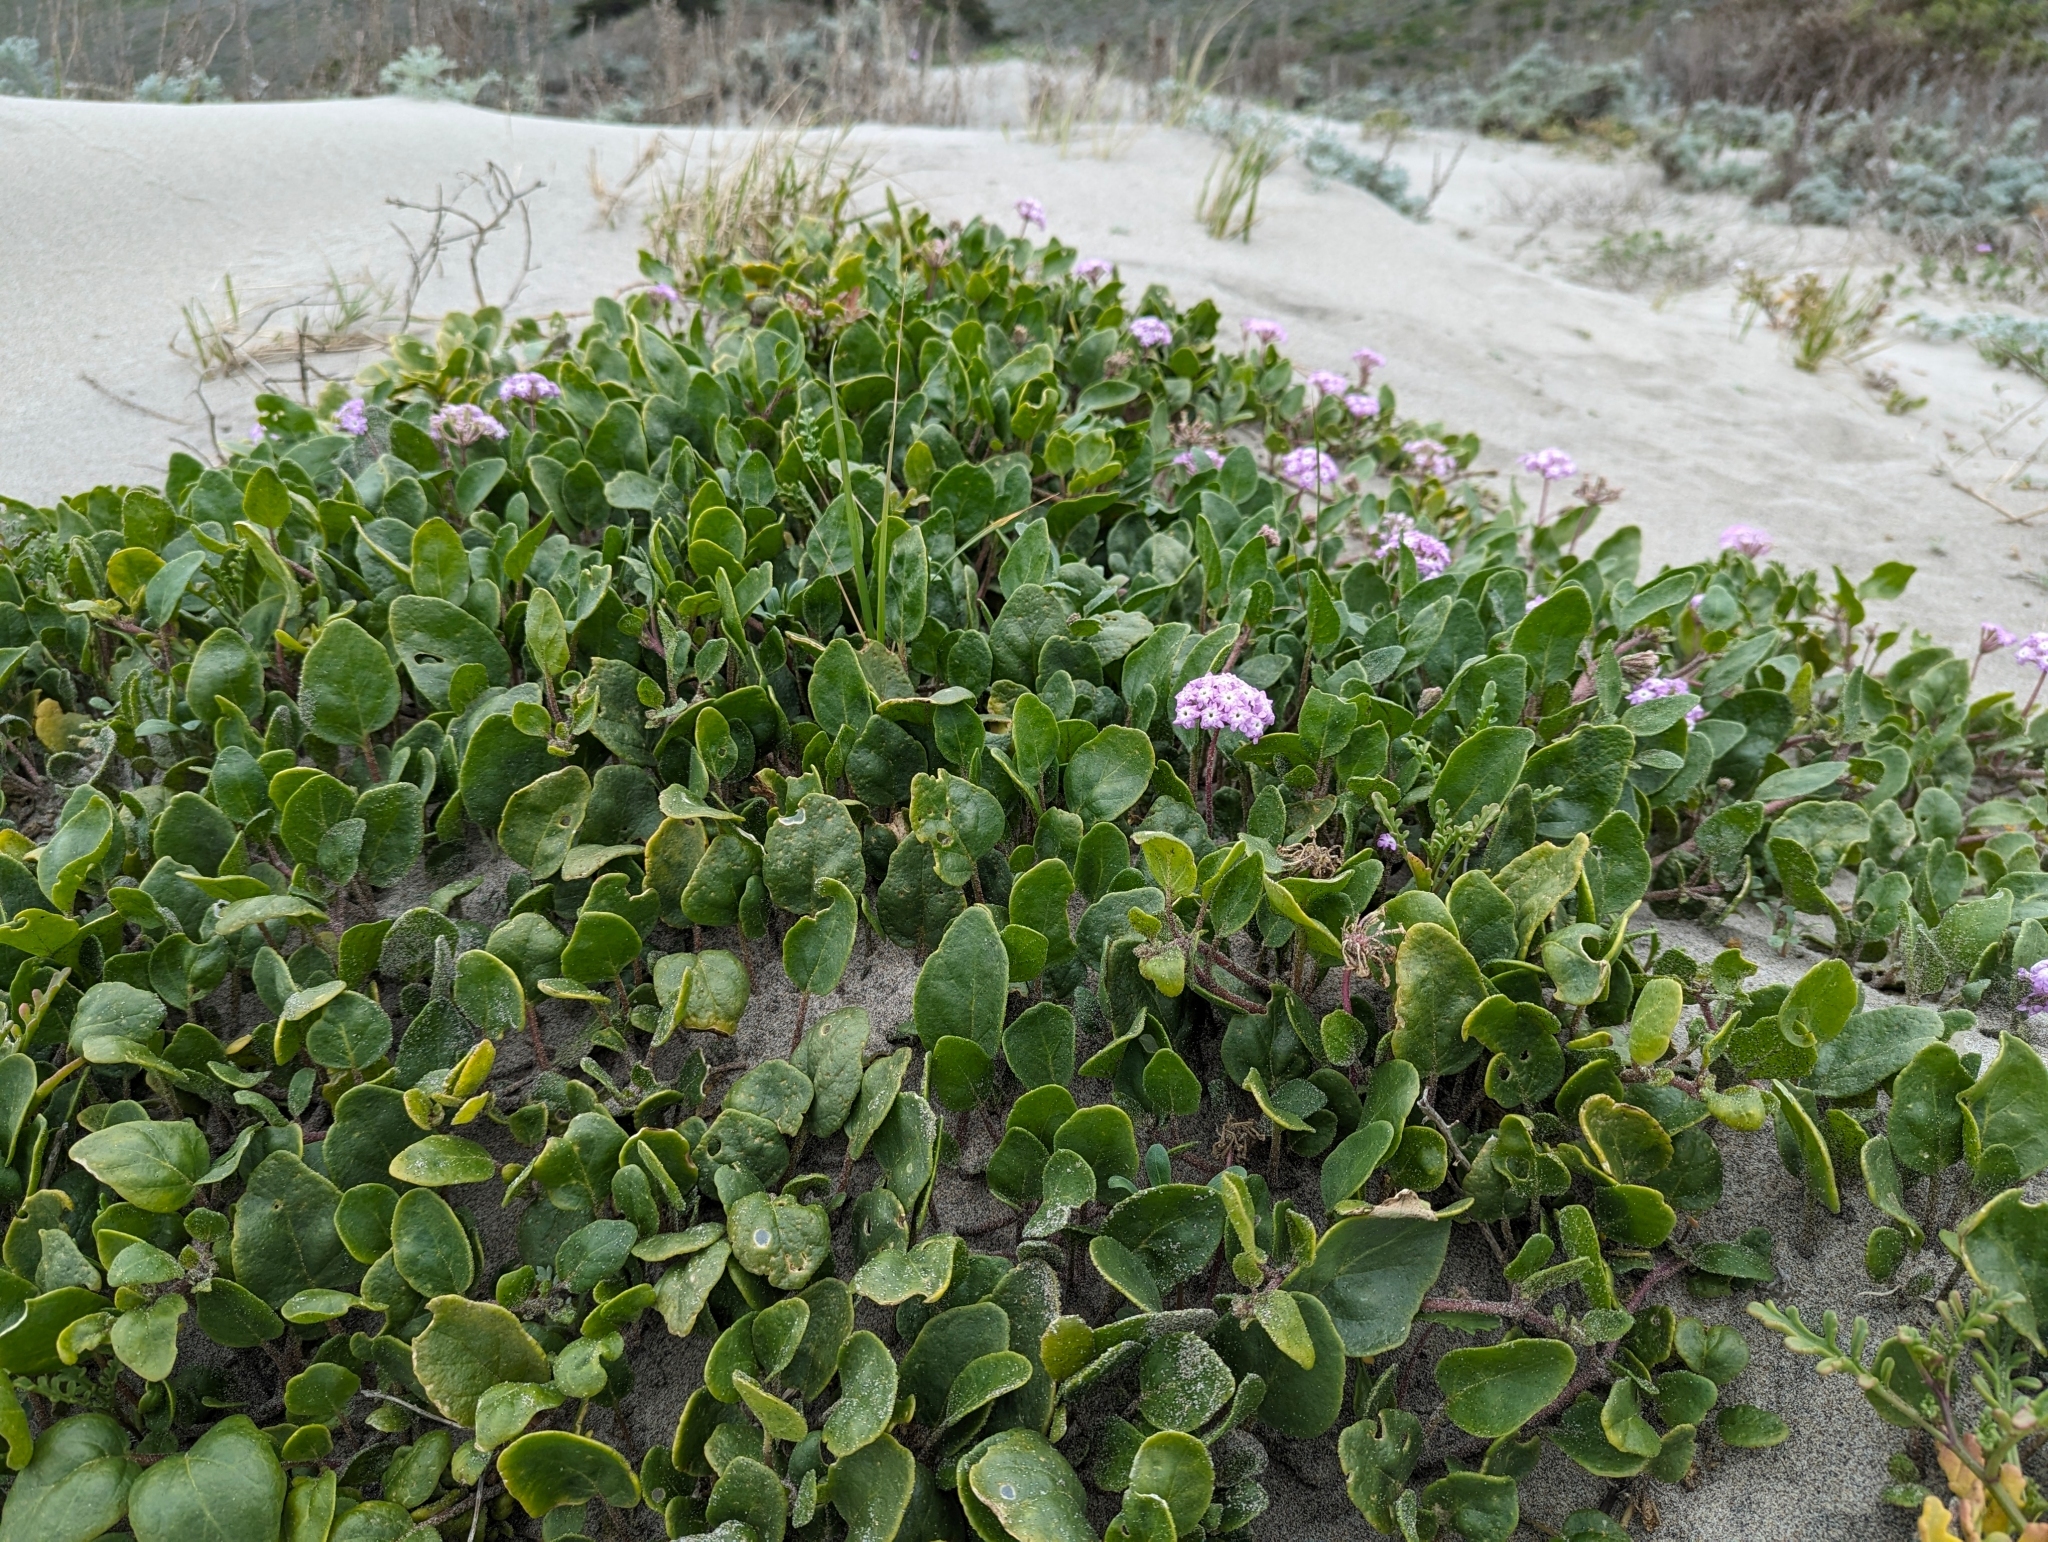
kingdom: Plantae
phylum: Tracheophyta
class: Magnoliopsida
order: Caryophyllales
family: Nyctaginaceae
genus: Abronia
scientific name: Abronia umbellata
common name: Sand-verbena
